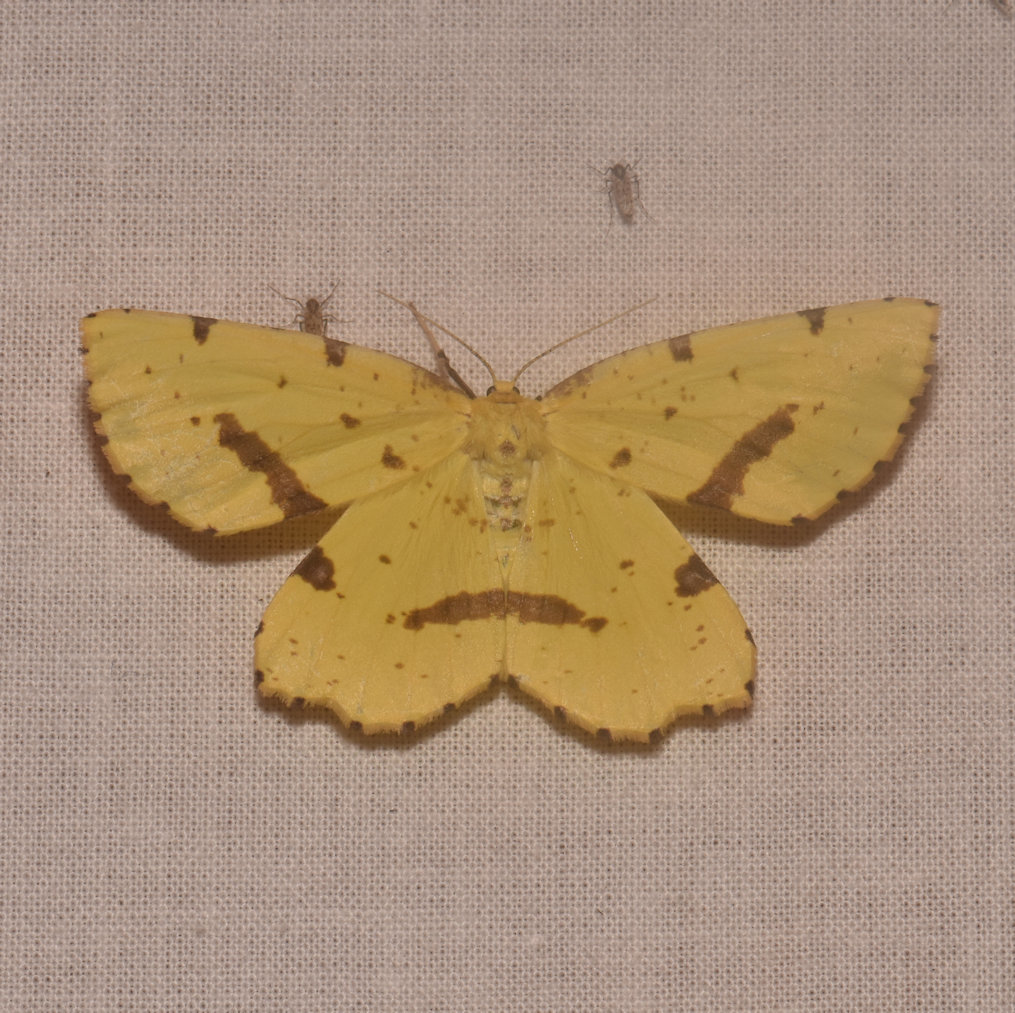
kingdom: Animalia
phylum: Arthropoda
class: Insecta
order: Lepidoptera
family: Geometridae
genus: Xanthotype
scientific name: Xanthotype
